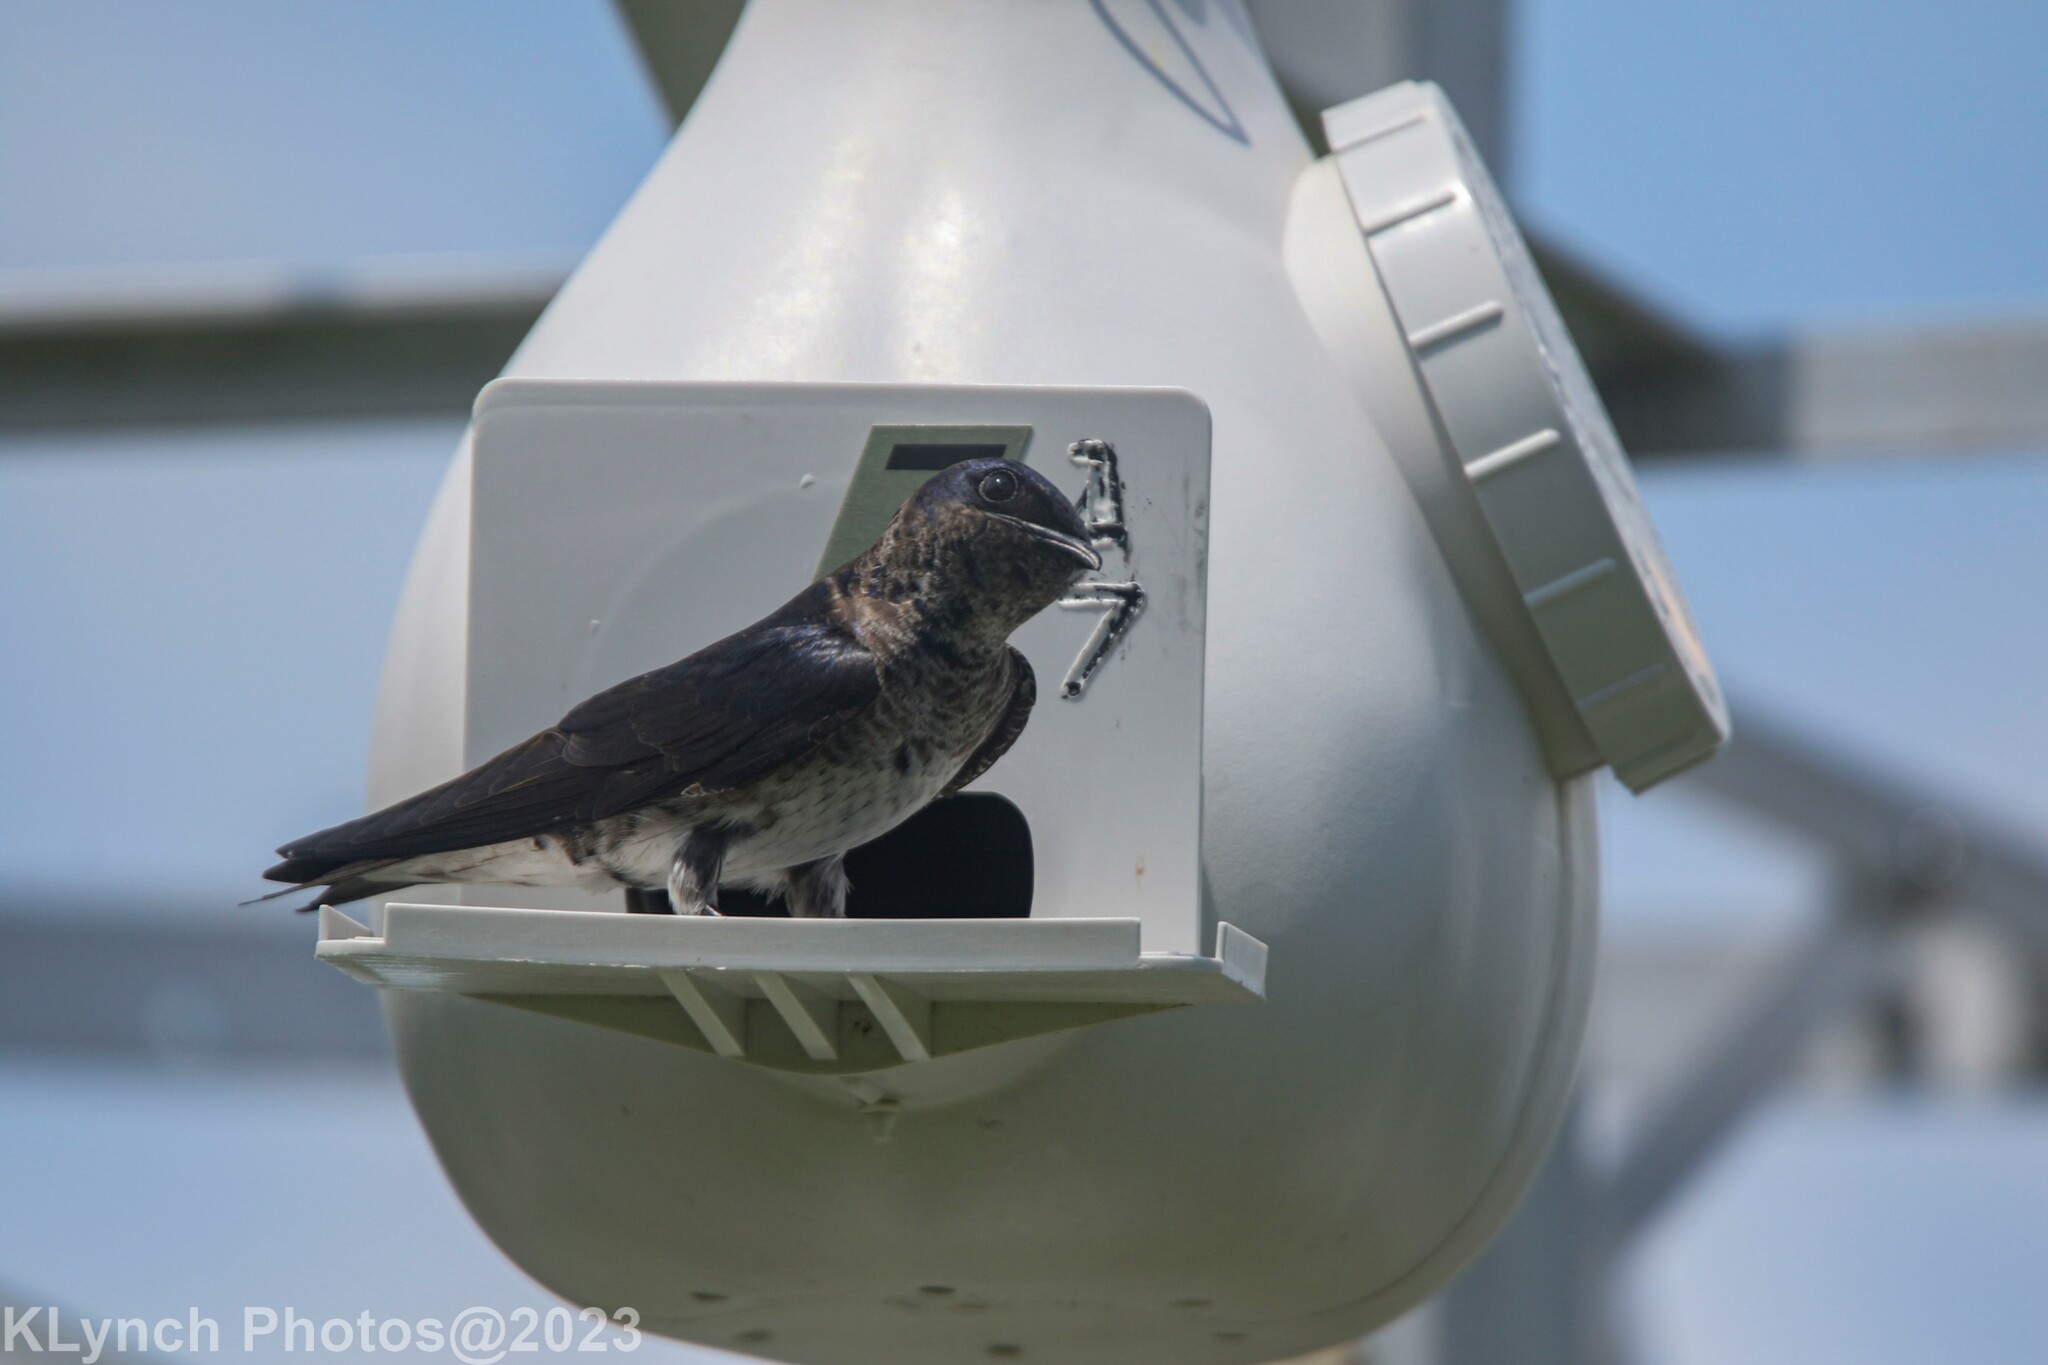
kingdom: Animalia
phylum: Chordata
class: Aves
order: Passeriformes
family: Hirundinidae
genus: Progne
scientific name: Progne subis
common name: Purple martin
